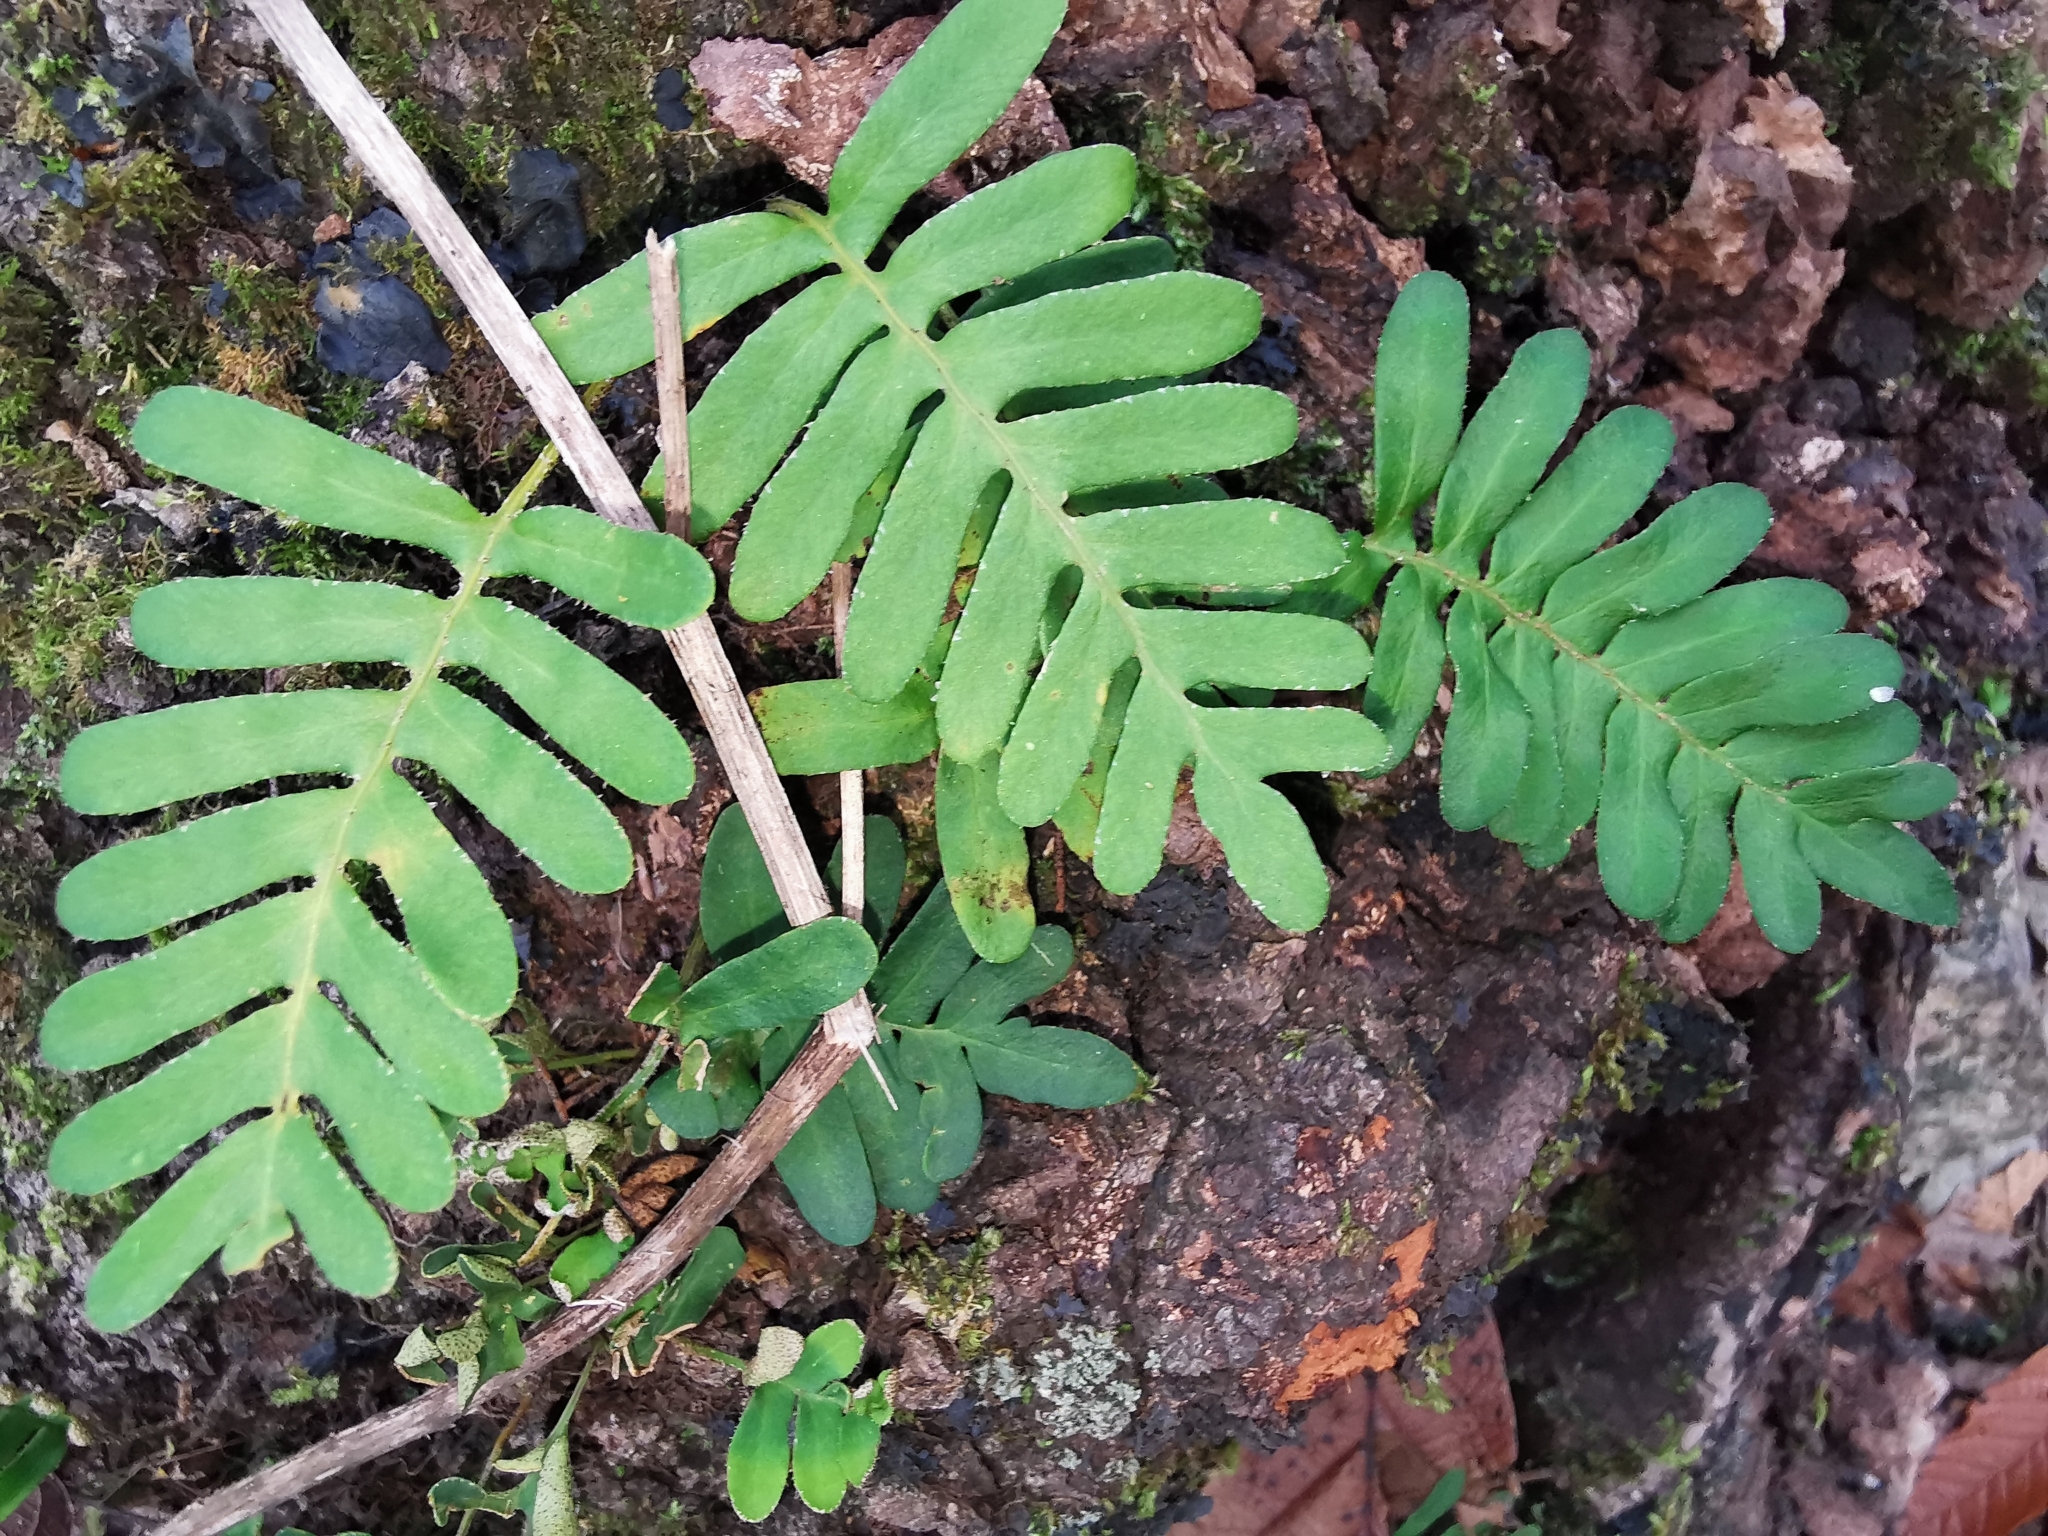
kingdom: Plantae
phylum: Tracheophyta
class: Polypodiopsida
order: Polypodiales
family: Polypodiaceae
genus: Pleopeltis
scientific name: Pleopeltis michauxiana
